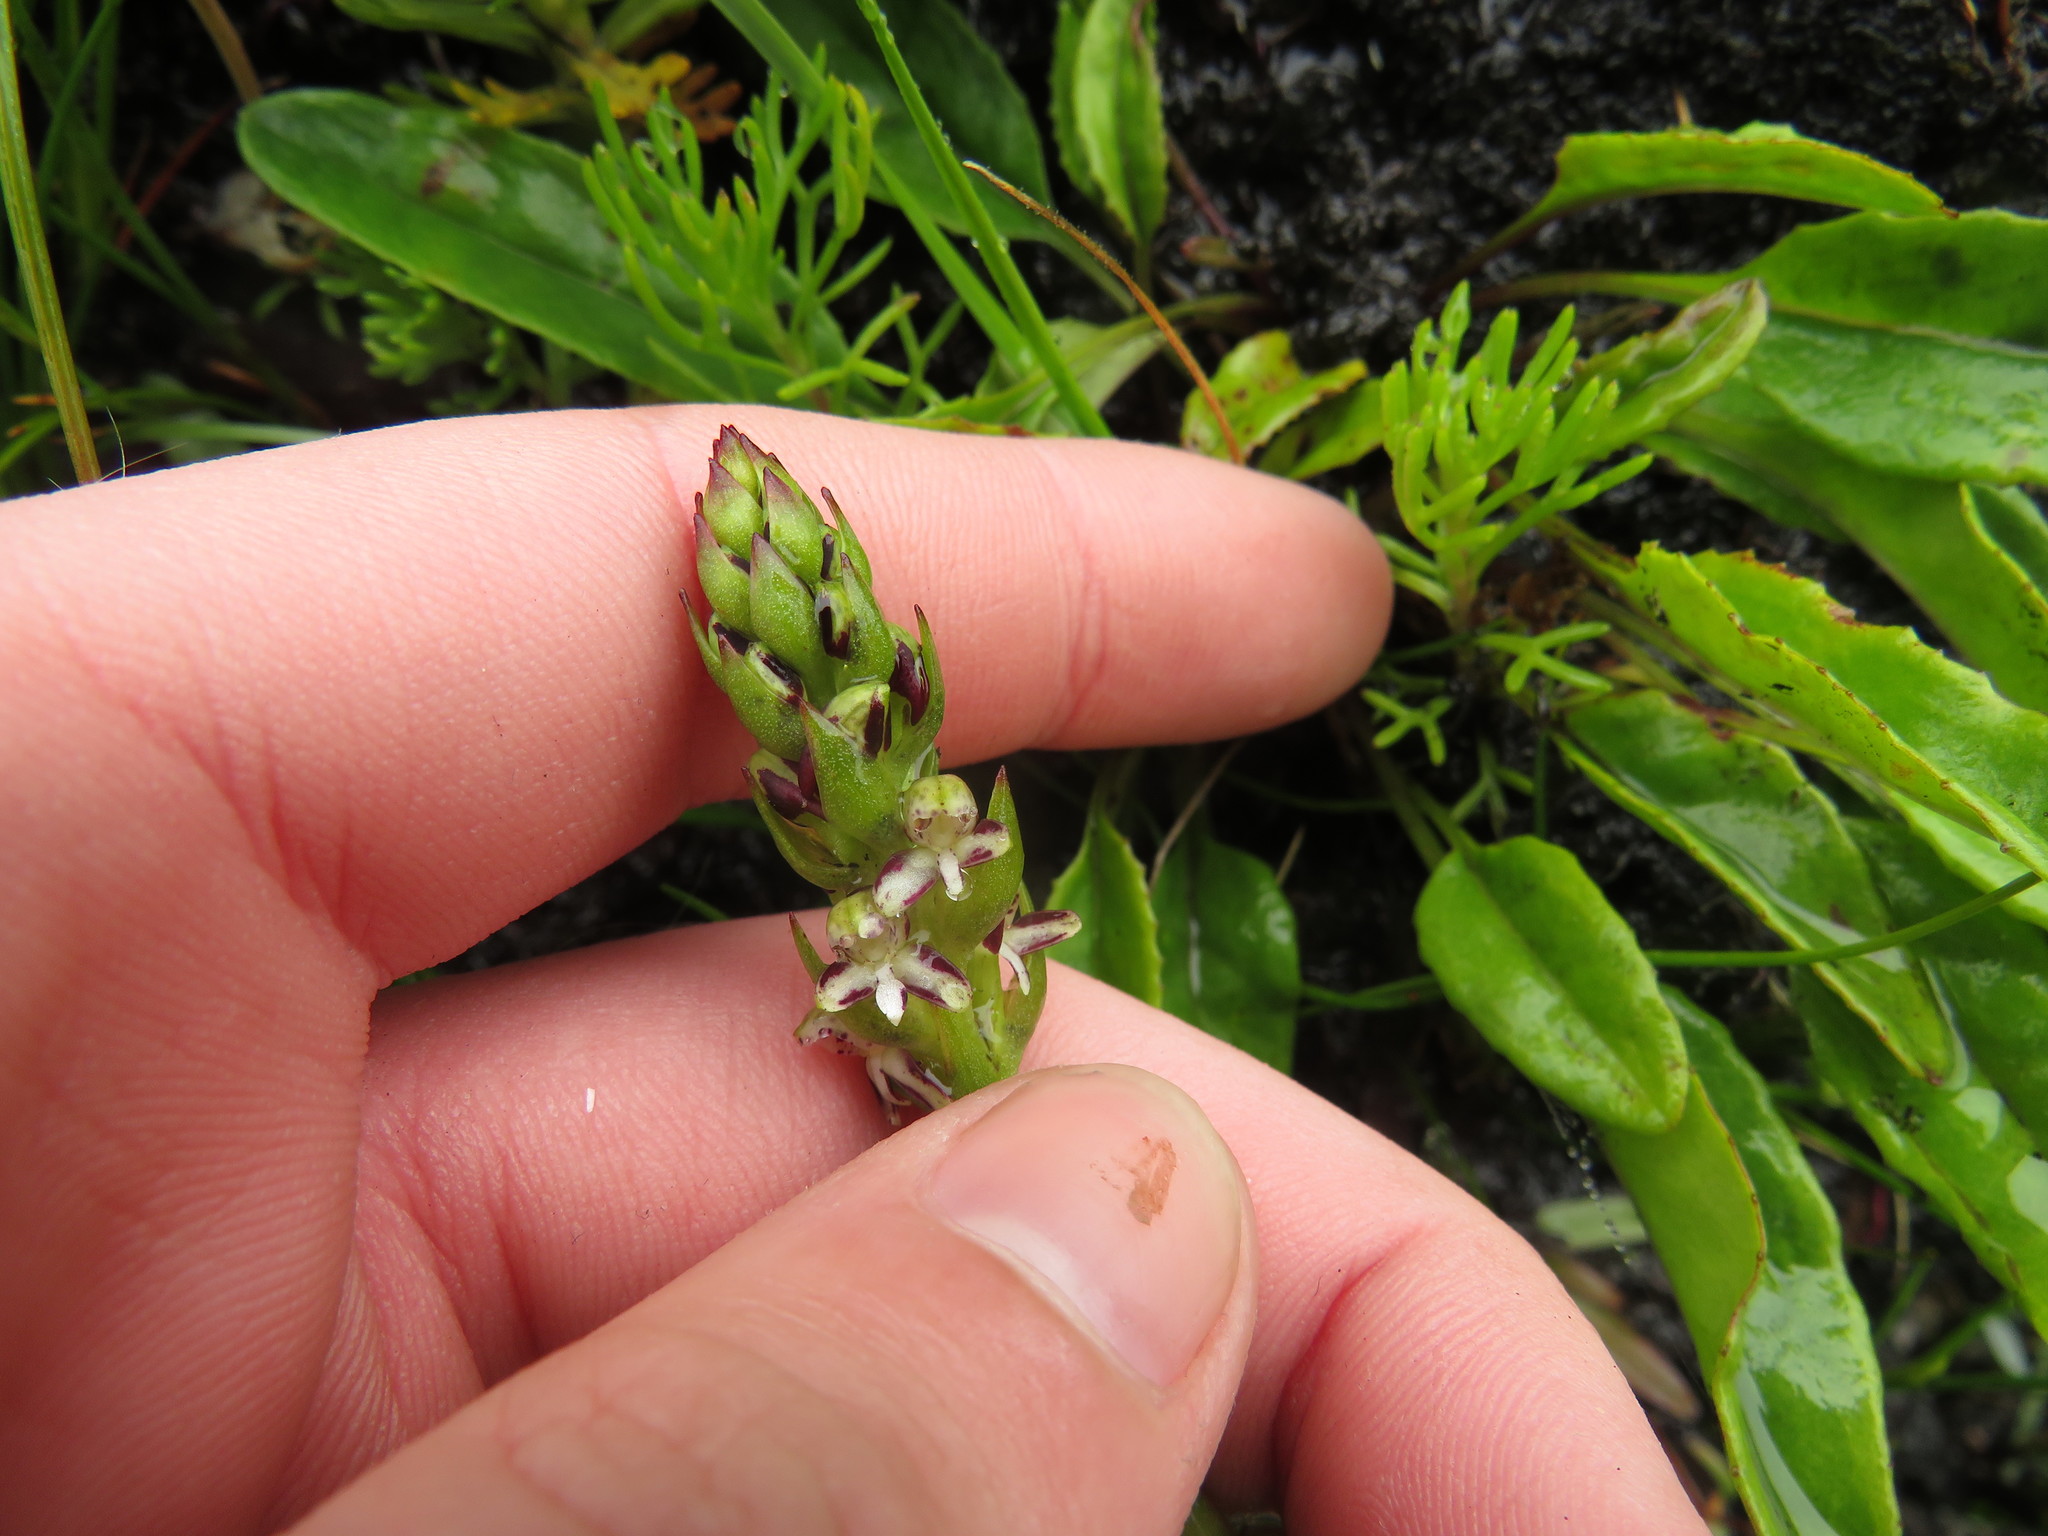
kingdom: Plantae
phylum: Tracheophyta
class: Liliopsida
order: Asparagales
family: Orchidaceae
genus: Disa
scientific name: Disa obtusa
